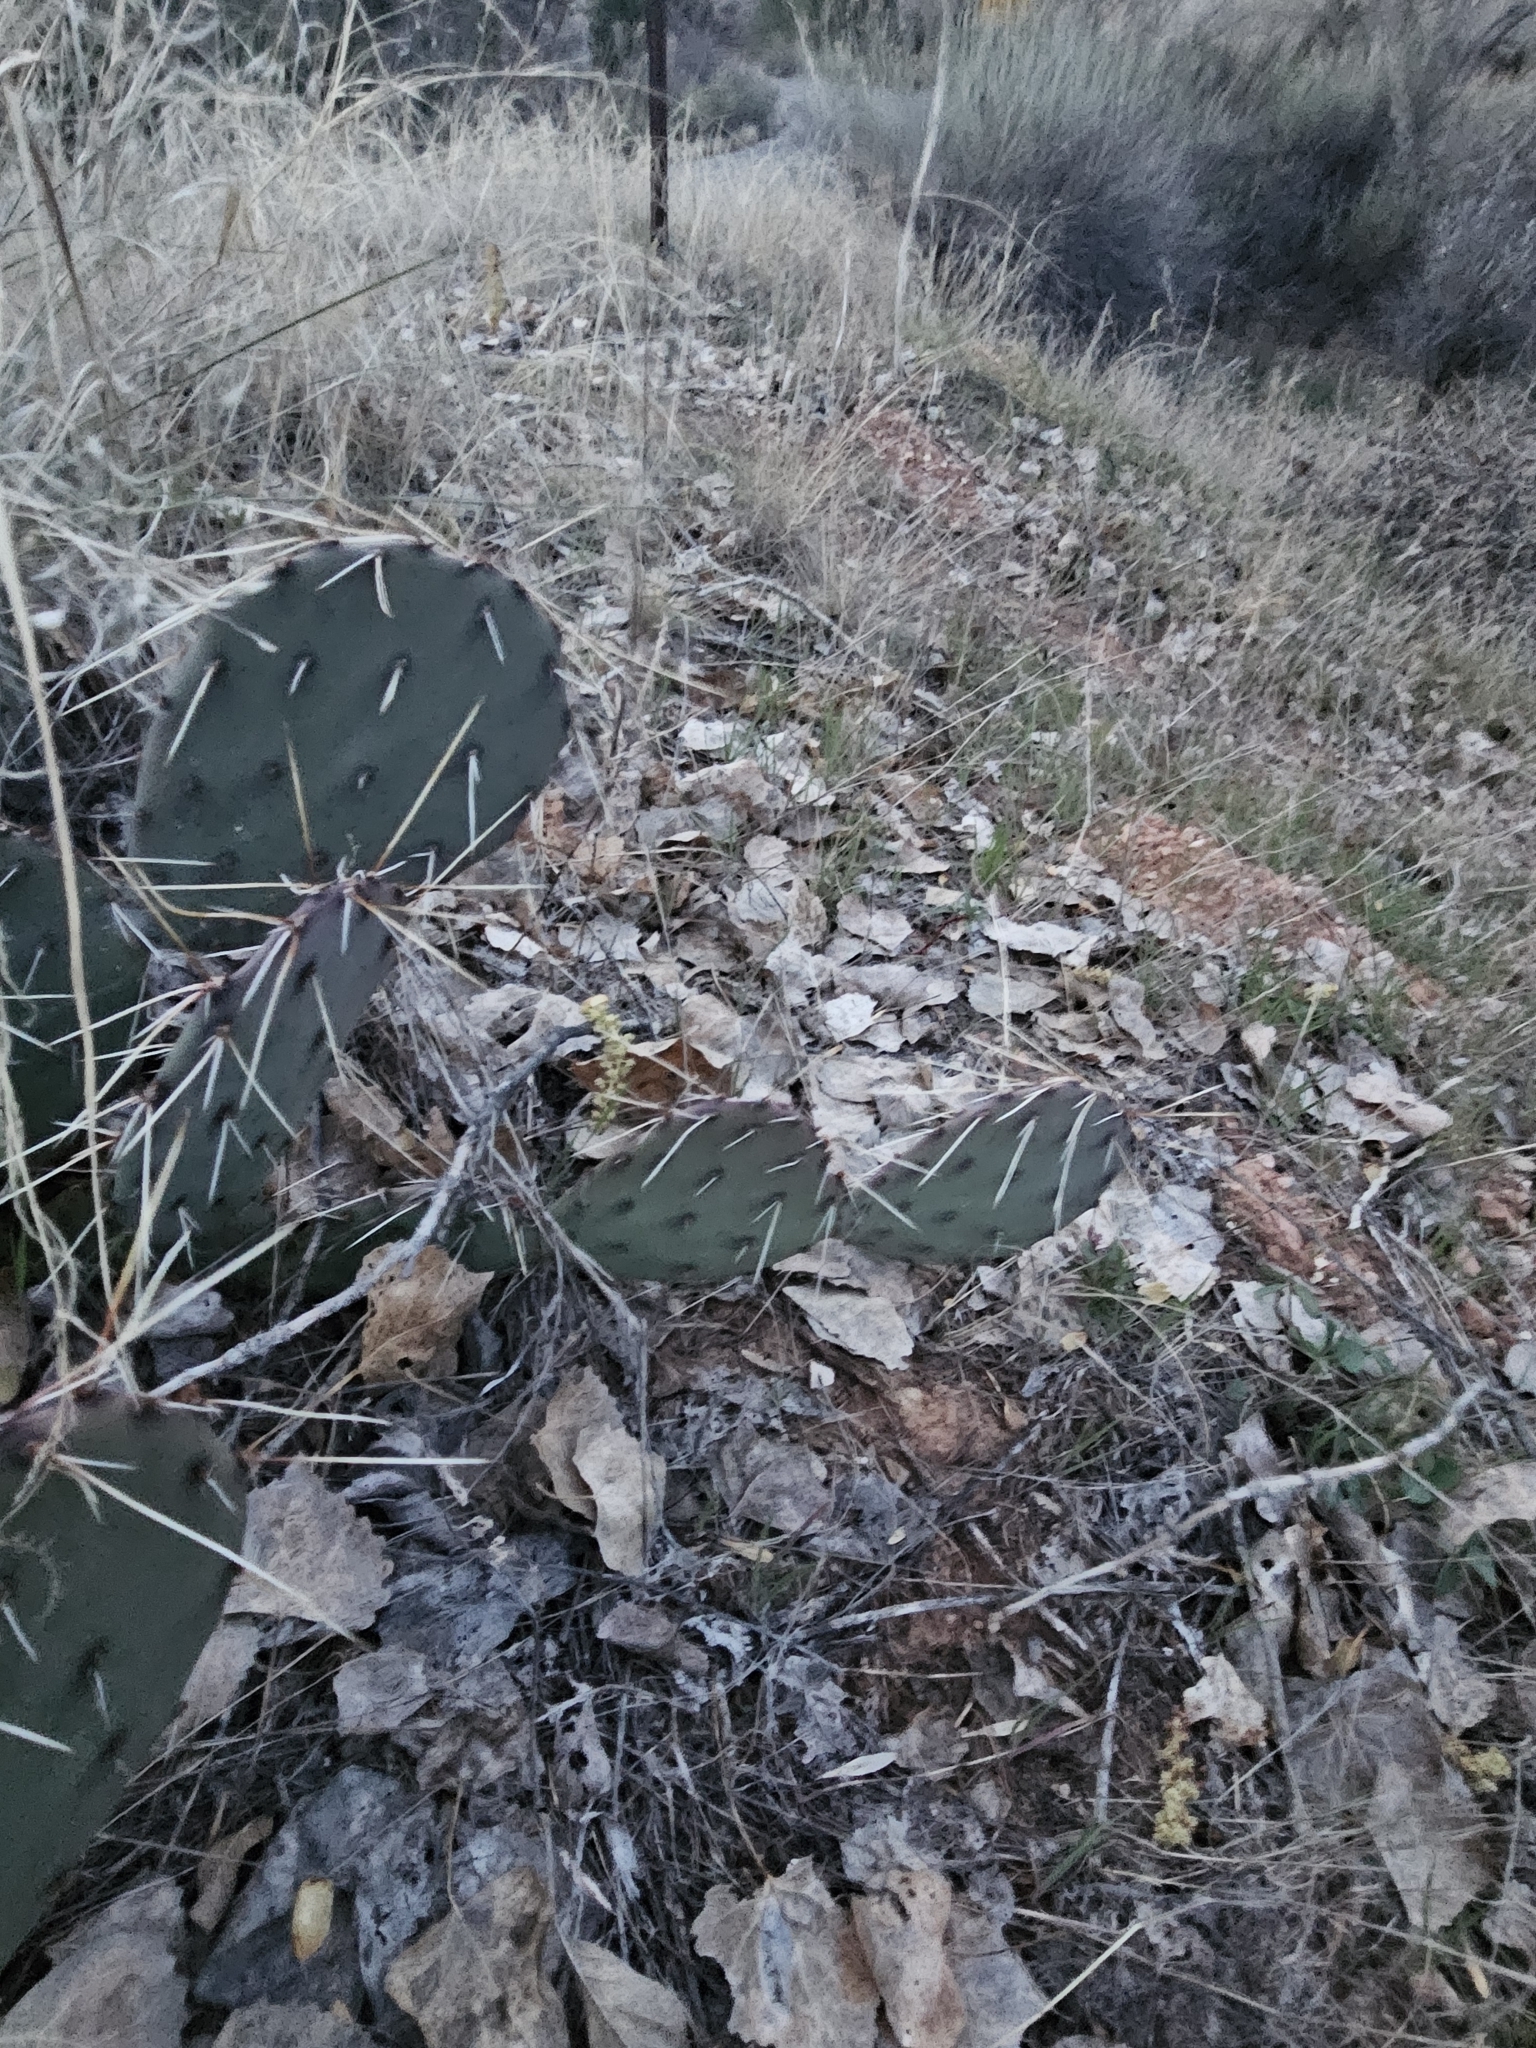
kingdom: Plantae
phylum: Tracheophyta
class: Magnoliopsida
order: Caryophyllales
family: Cactaceae
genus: Opuntia
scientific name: Opuntia phaeacantha
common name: New mexico prickly-pear
